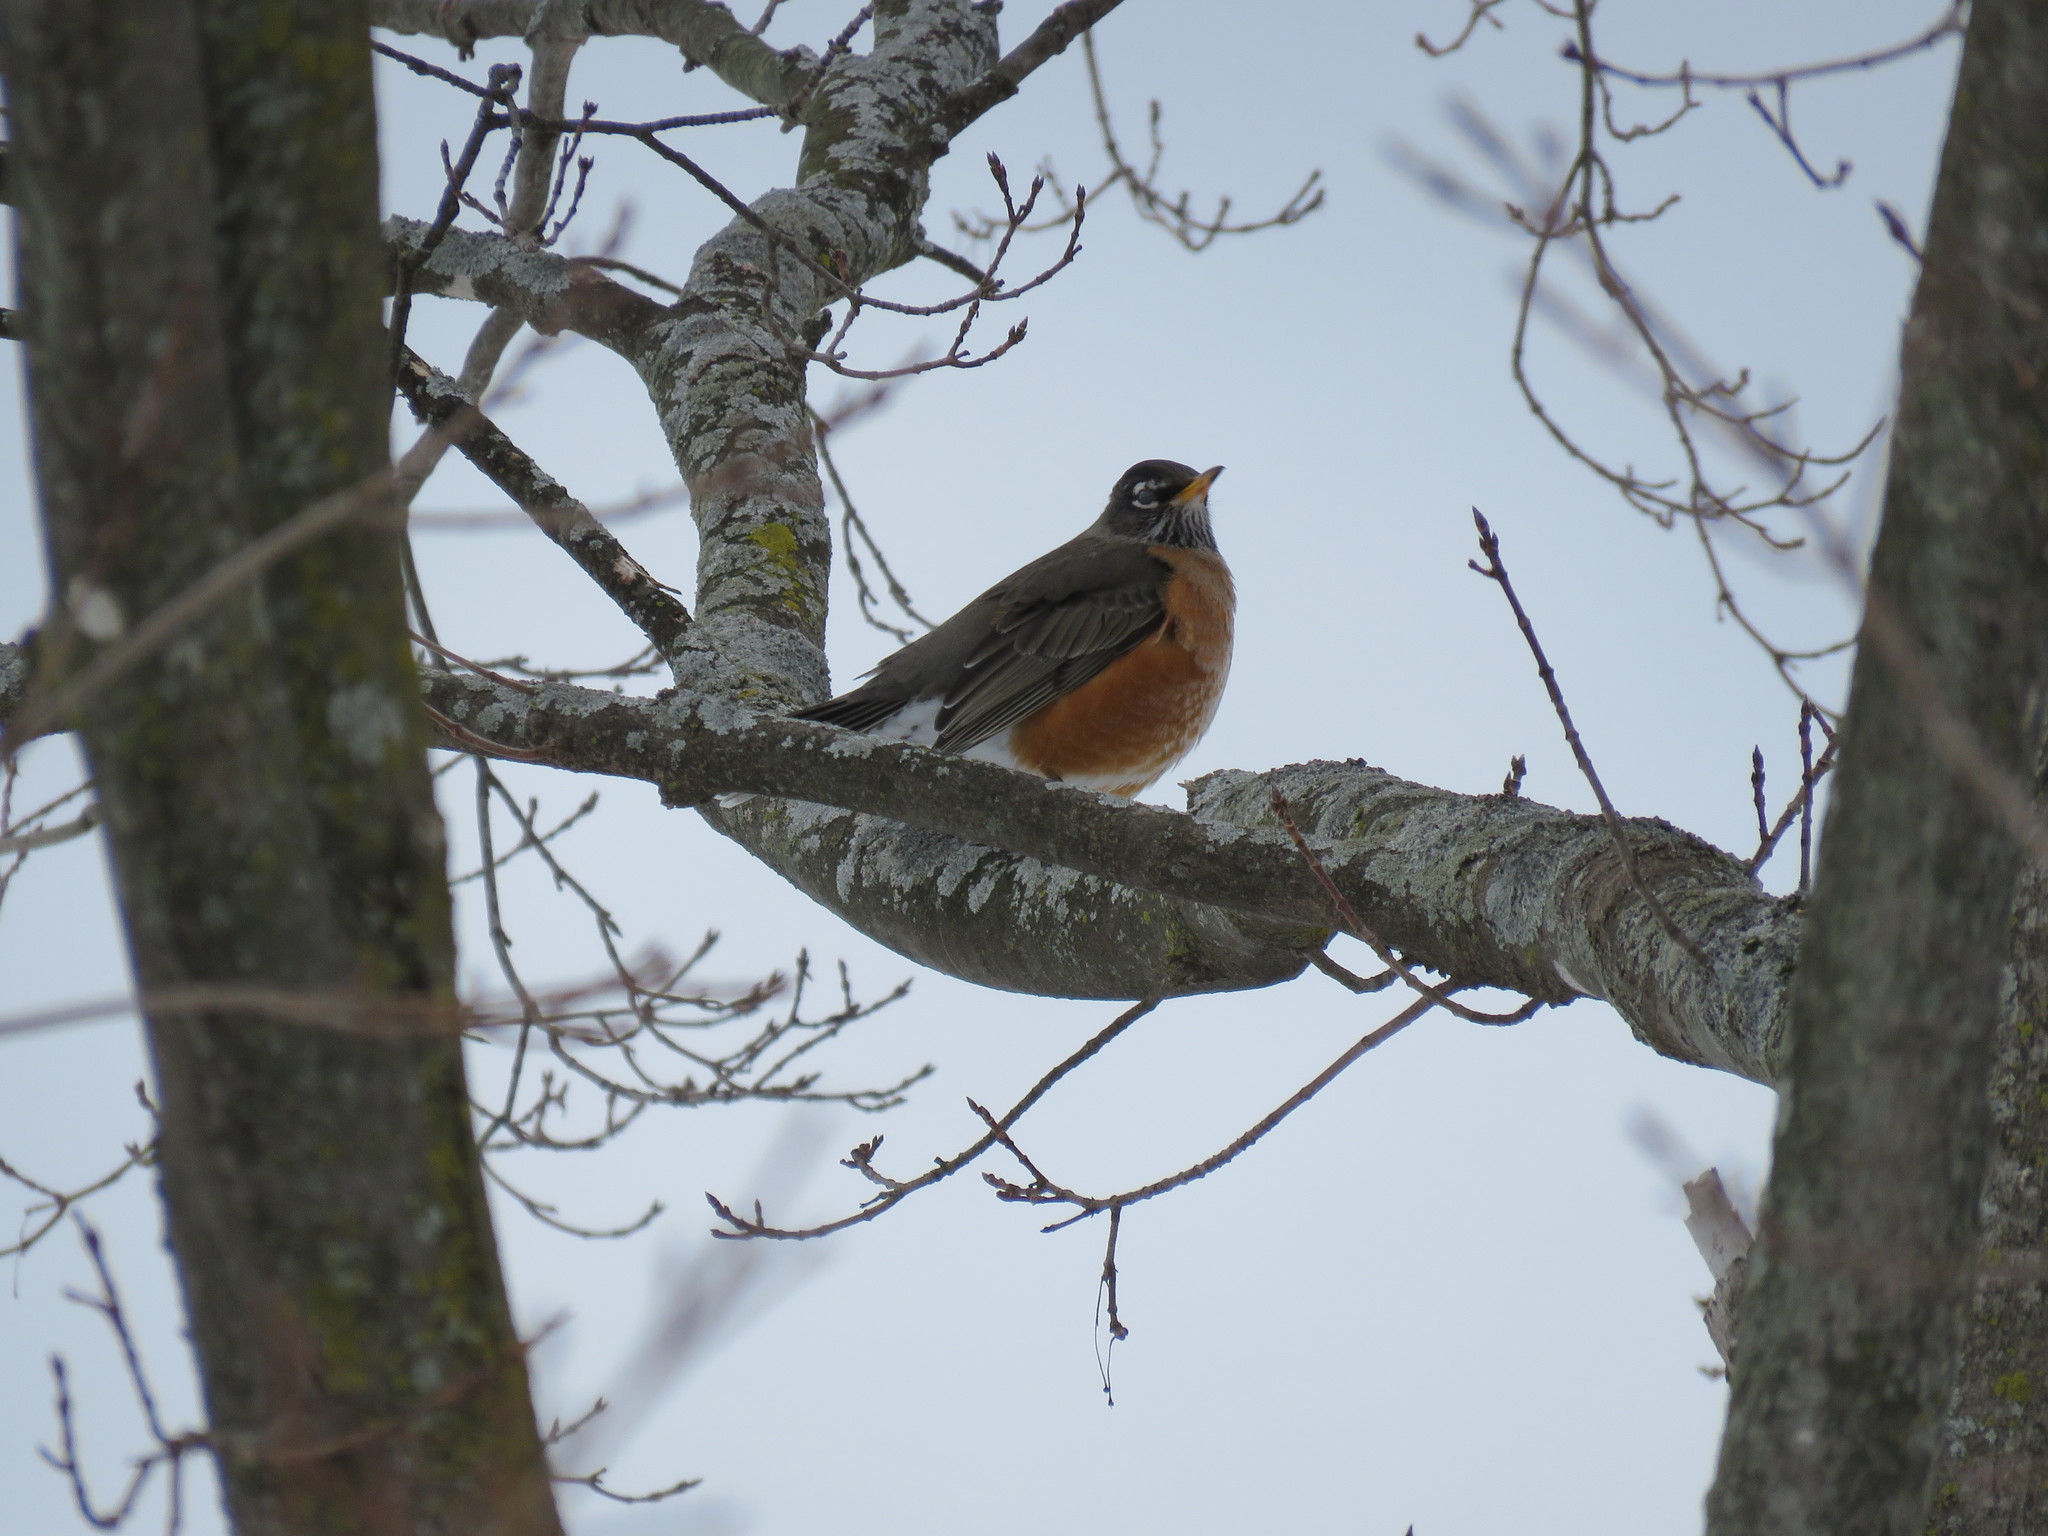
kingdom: Animalia
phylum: Chordata
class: Aves
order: Passeriformes
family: Turdidae
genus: Turdus
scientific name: Turdus migratorius
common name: American robin
